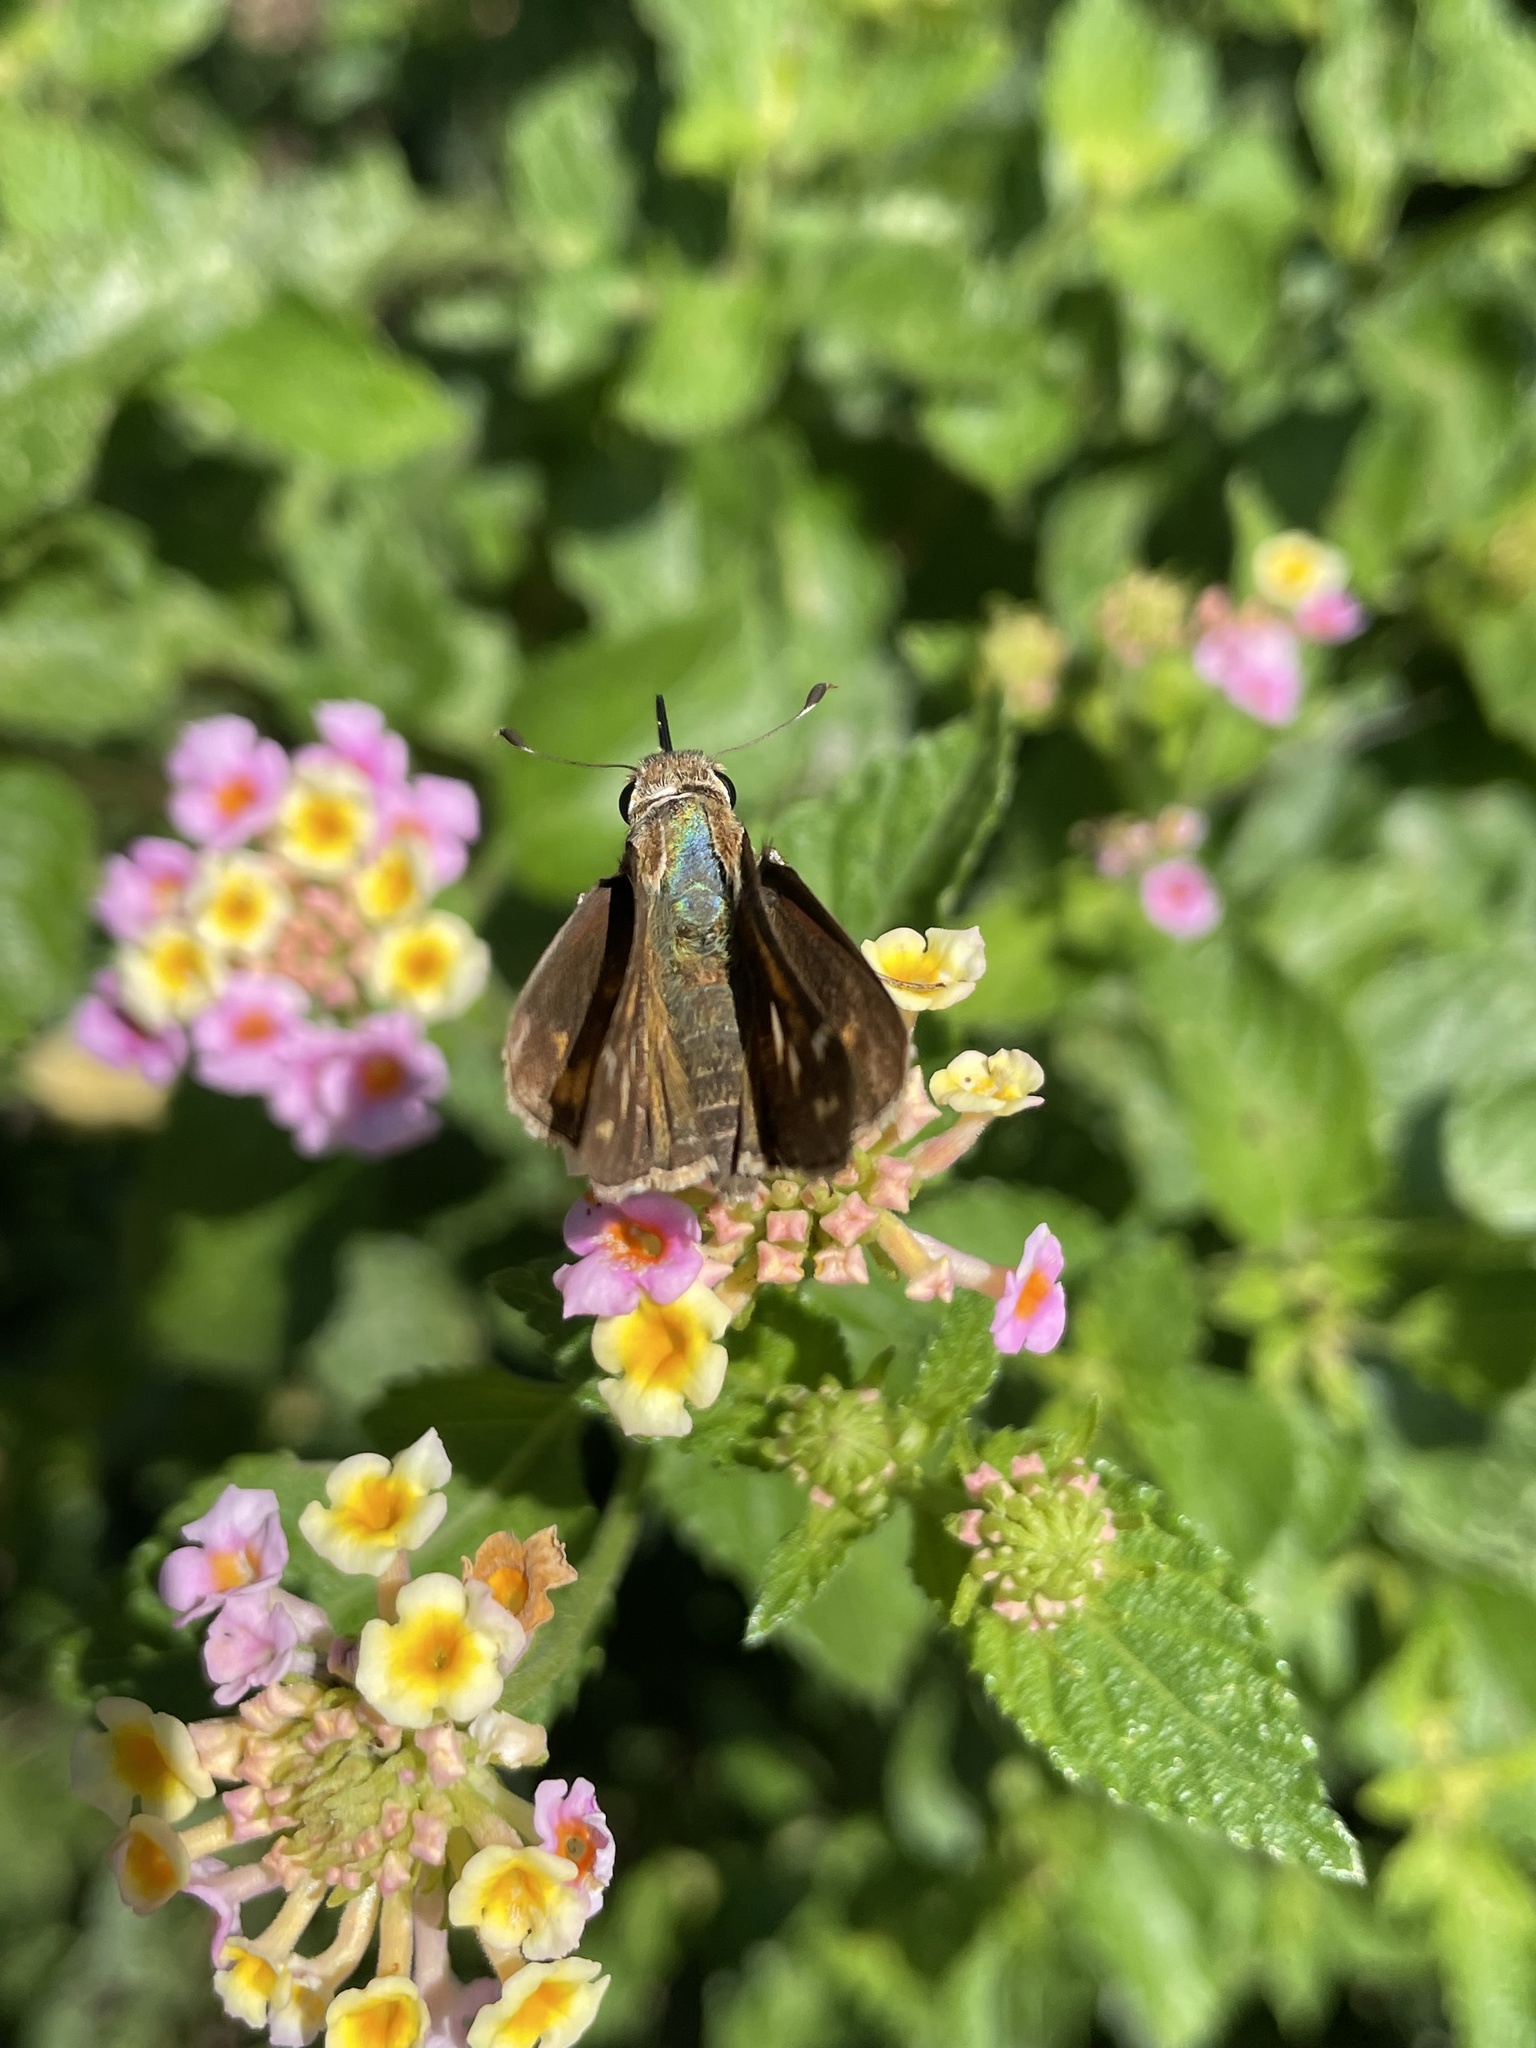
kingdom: Animalia
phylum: Arthropoda
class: Insecta
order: Lepidoptera
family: Hesperiidae
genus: Lerodea
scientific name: Lerodea eufala
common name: Eufala skipper
